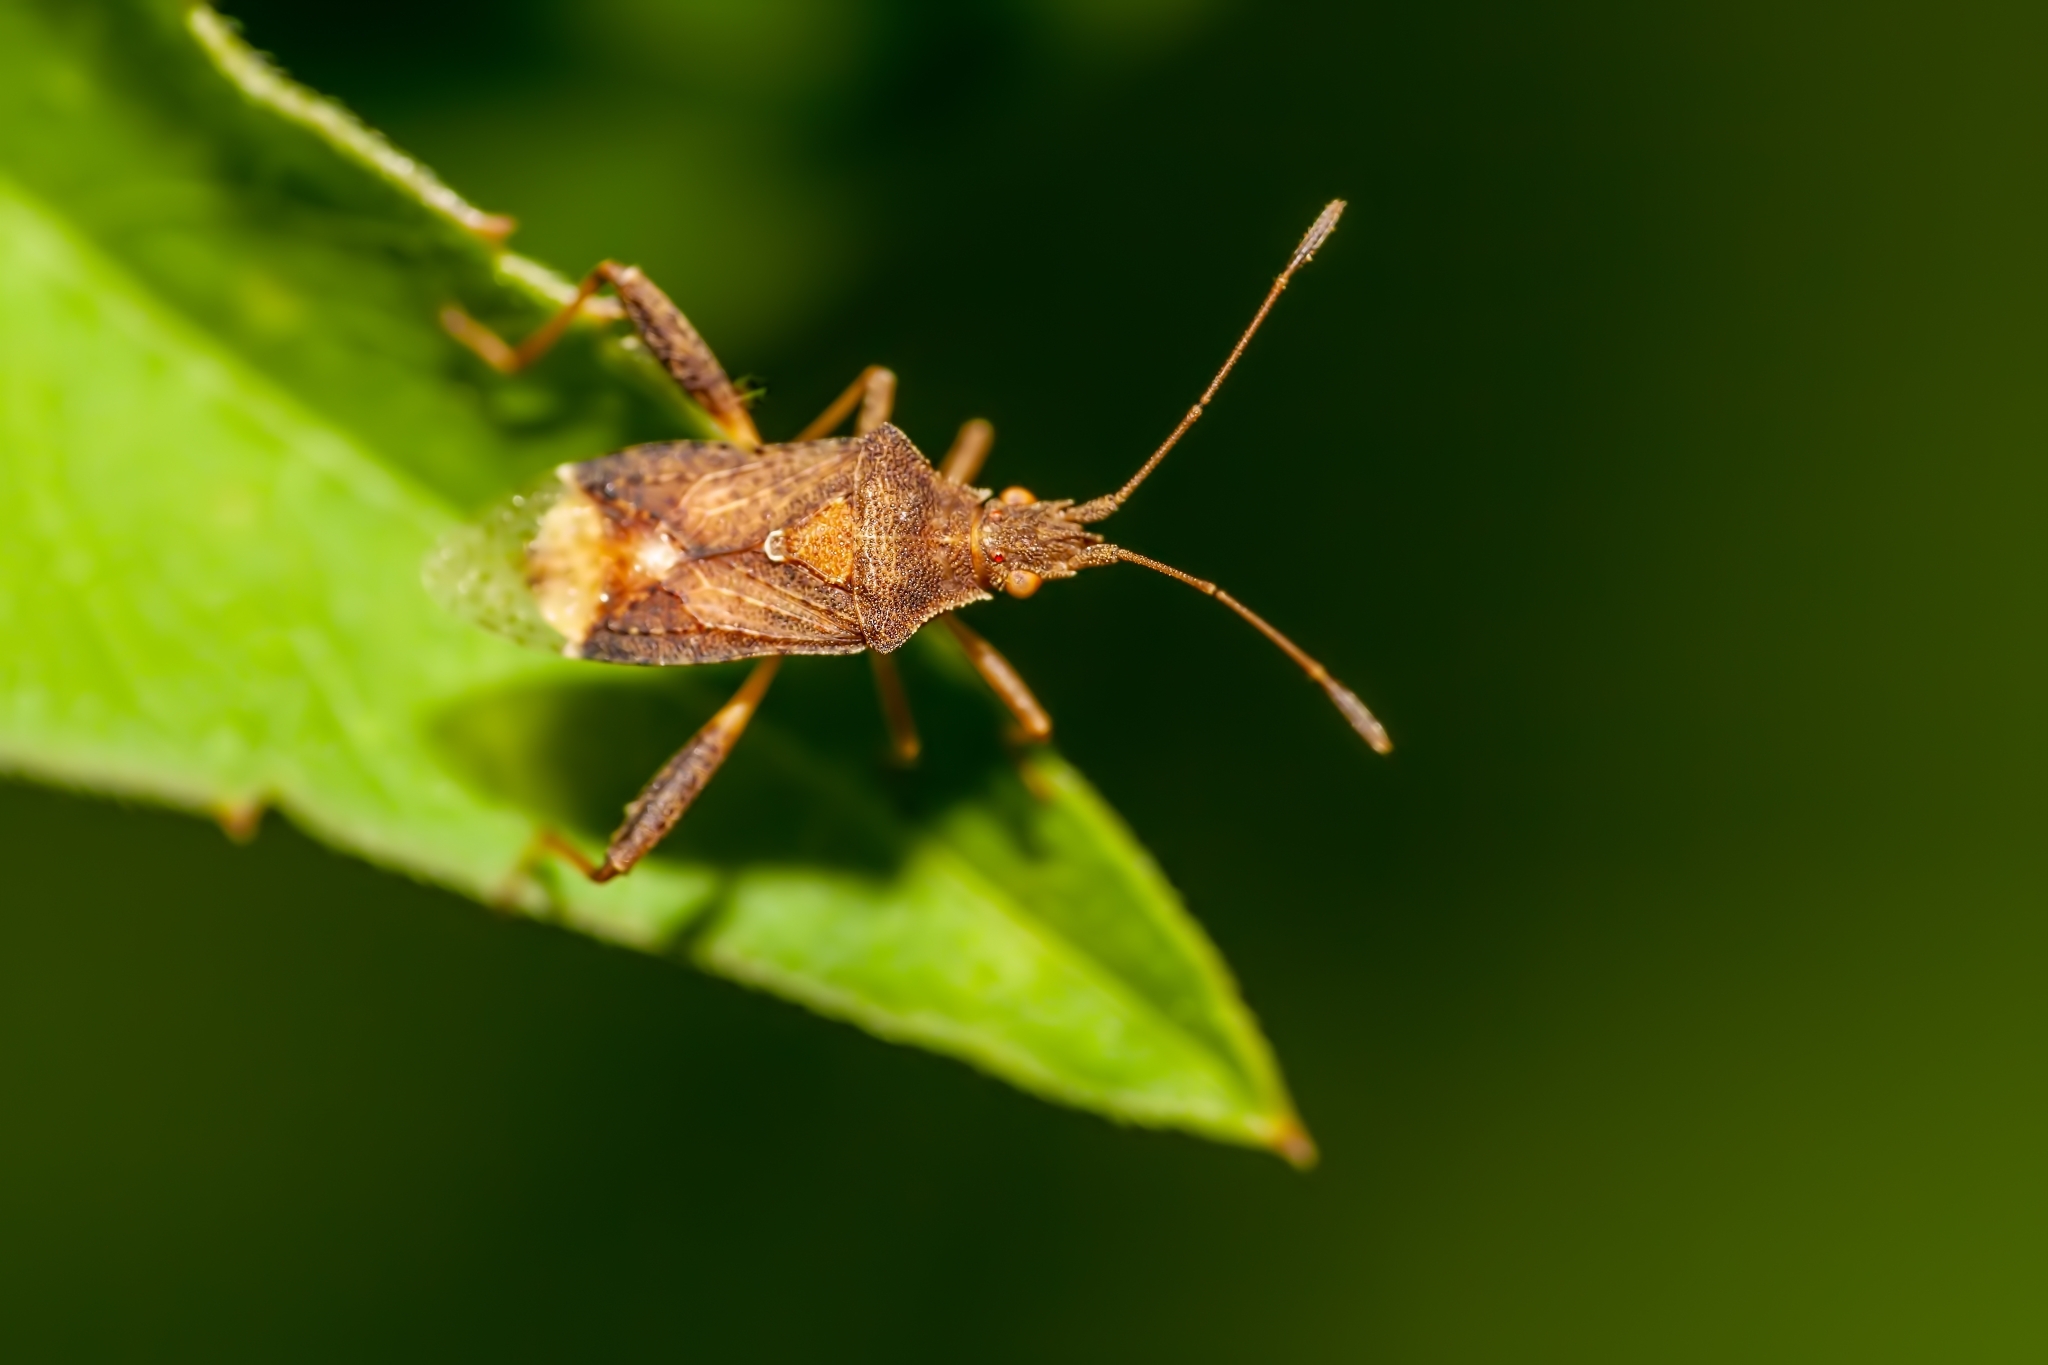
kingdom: Animalia
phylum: Arthropoda
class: Insecta
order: Hemiptera
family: Rhopalidae
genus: Harmostes
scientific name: Harmostes serratus
